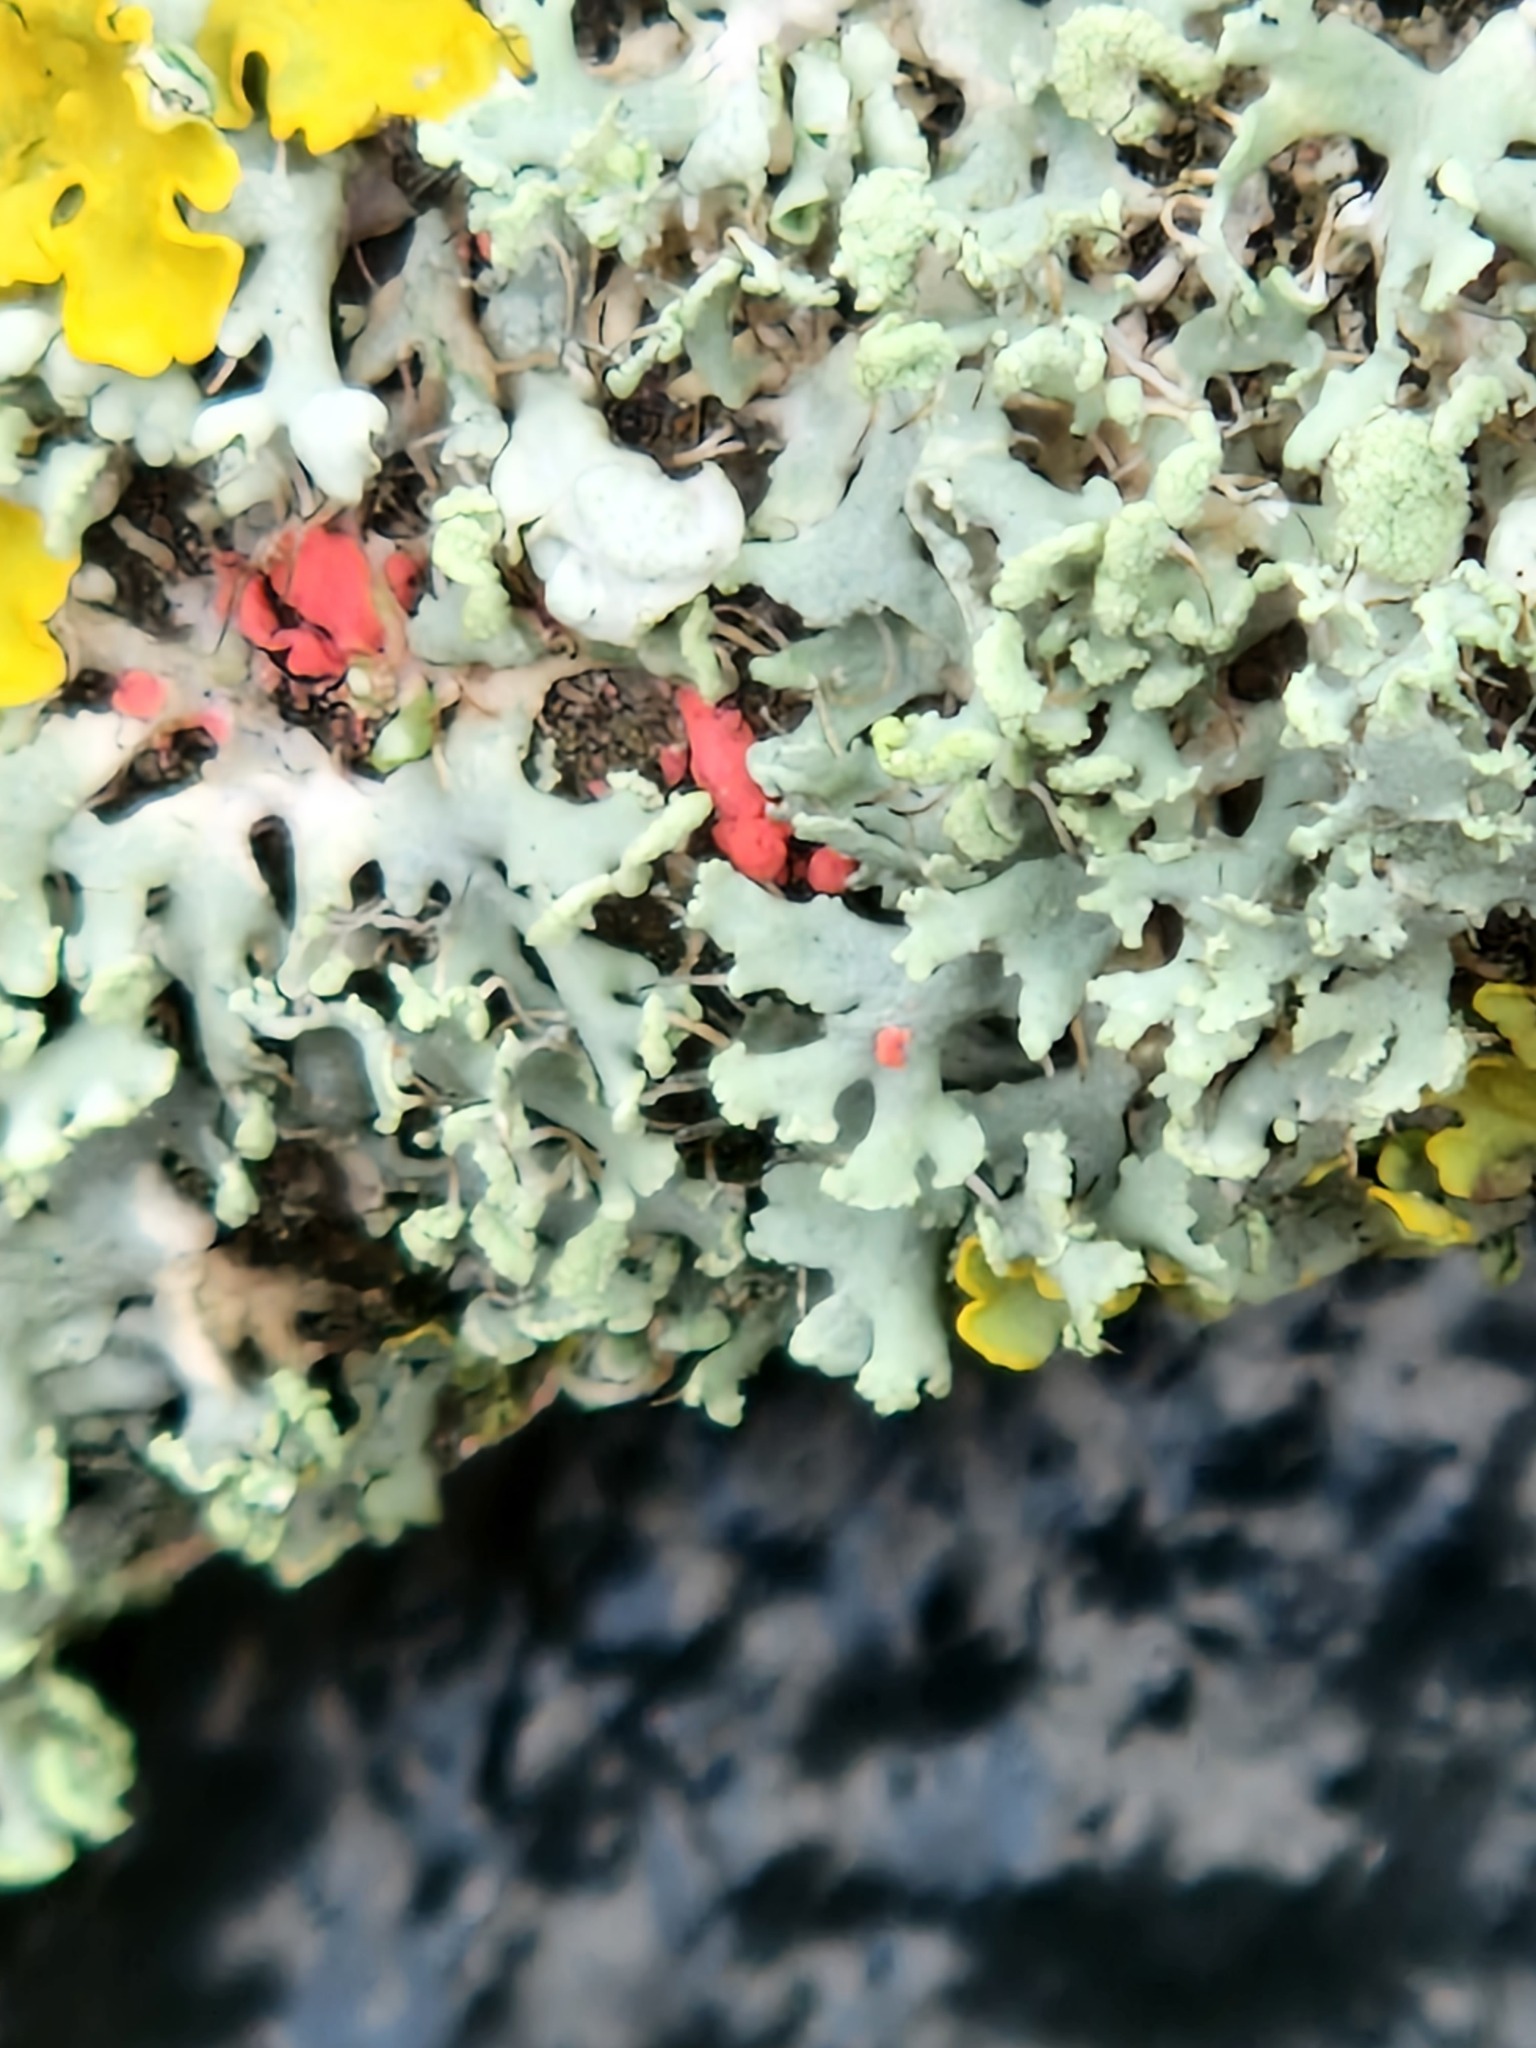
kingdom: Fungi
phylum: Ascomycota
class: Lecanoromycetes
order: Caliciales
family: Physciaceae
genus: Physcia
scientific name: Physcia tenella
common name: Fringed rosette lichen
